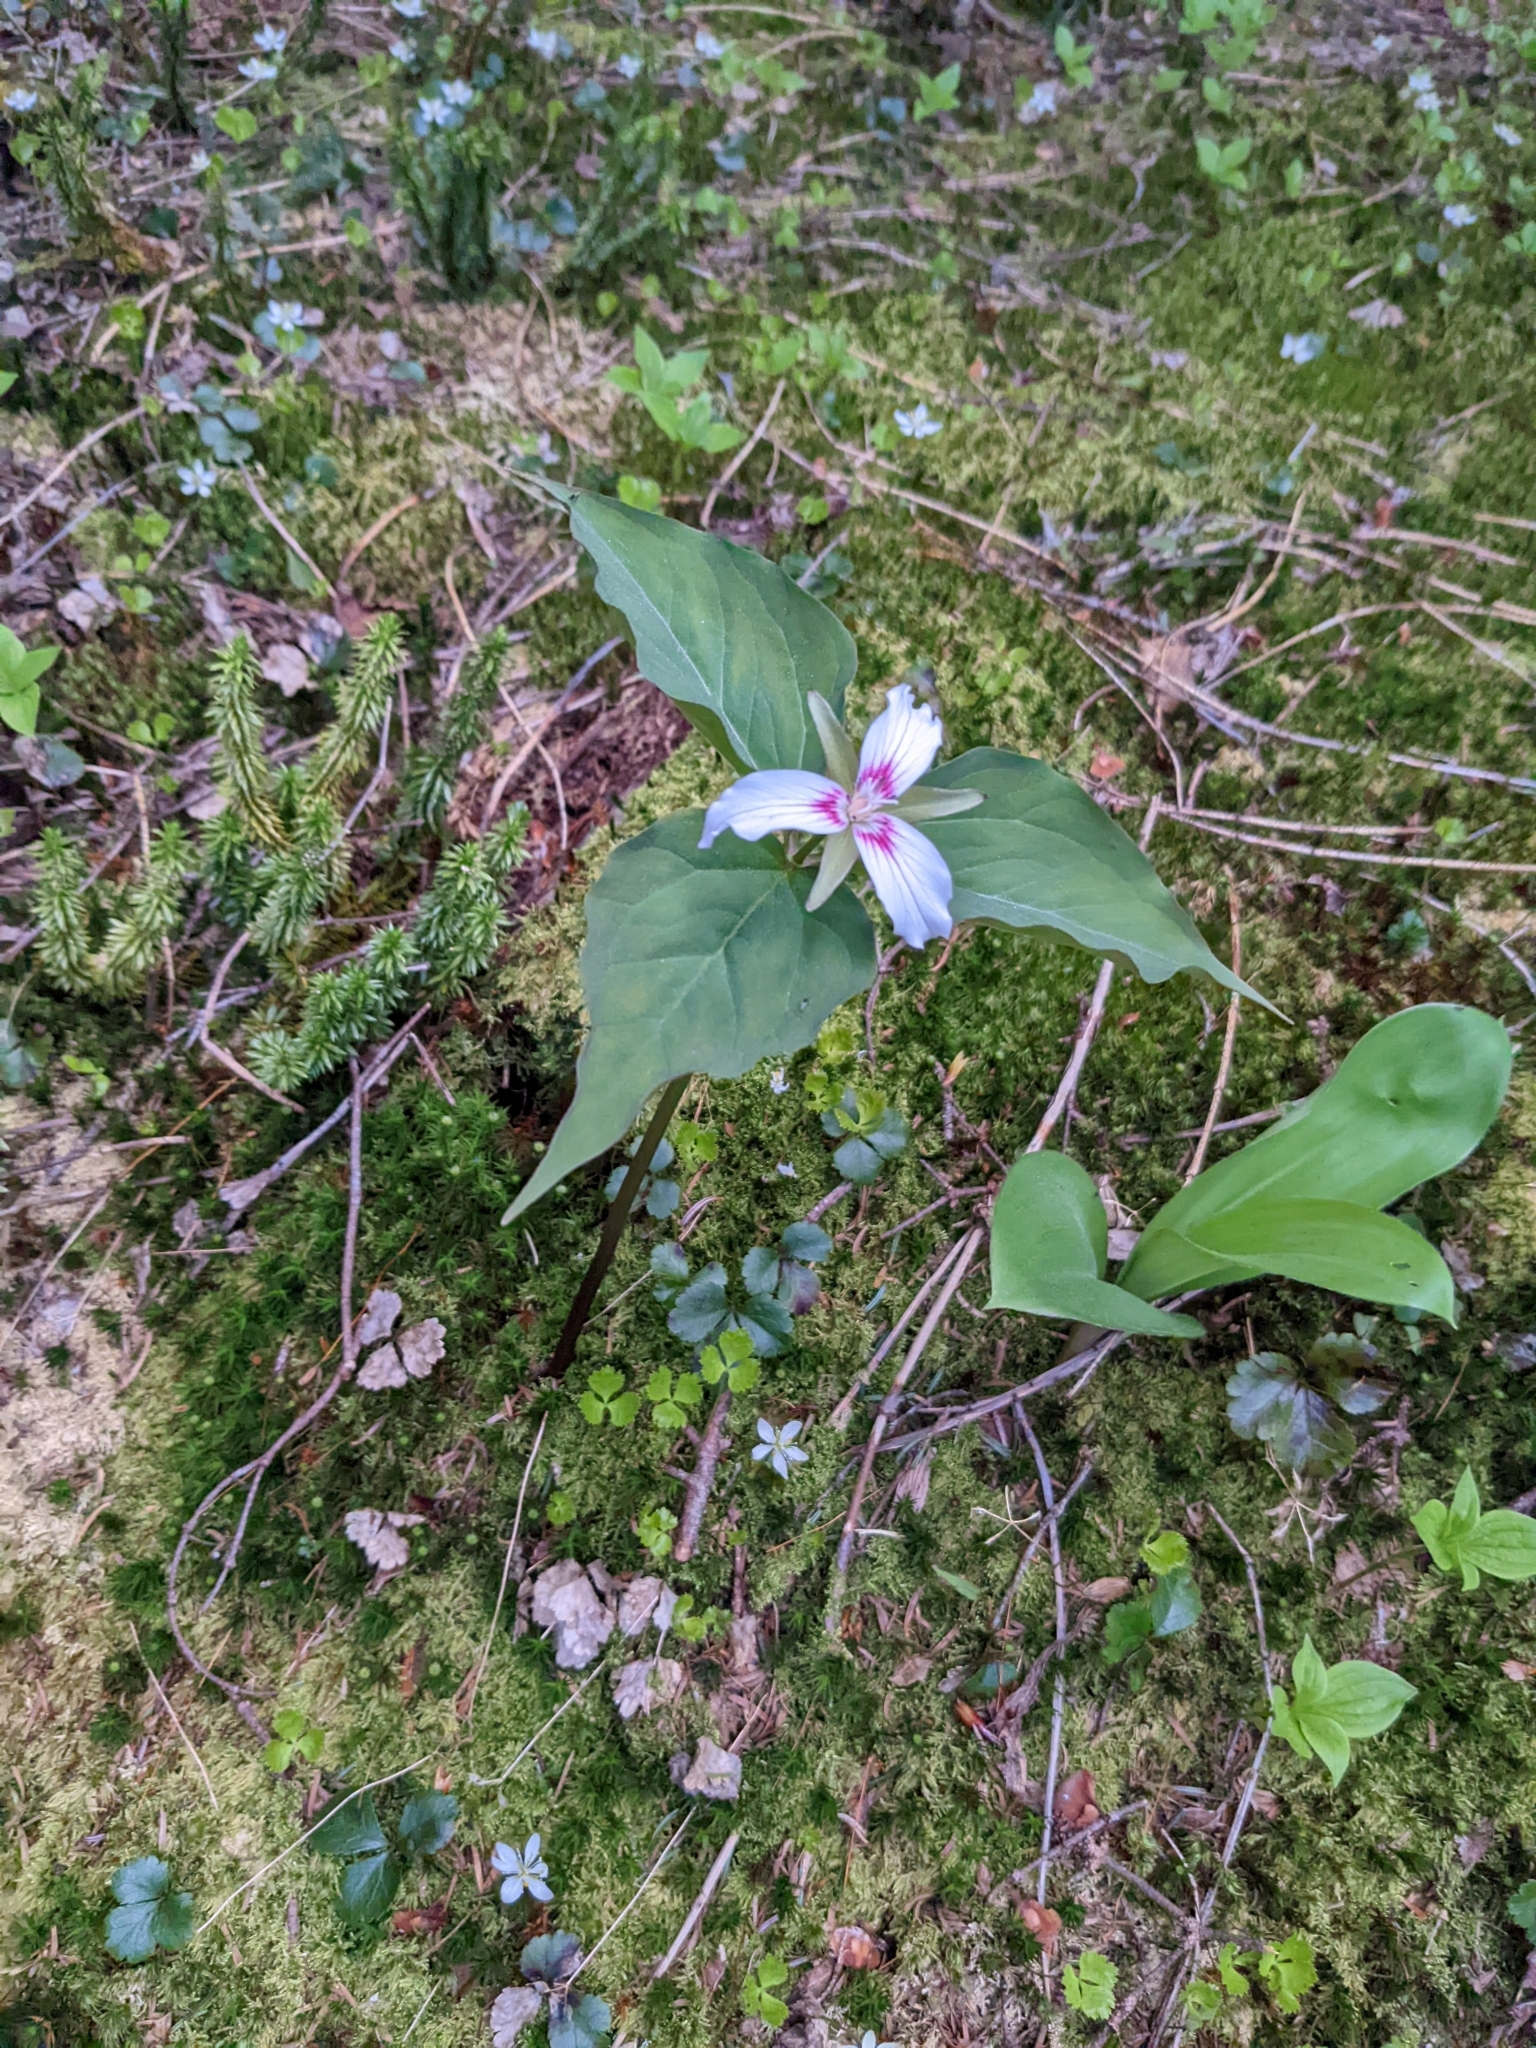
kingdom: Plantae
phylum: Tracheophyta
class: Liliopsida
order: Liliales
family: Melanthiaceae
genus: Trillium
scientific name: Trillium undulatum
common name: Paint trillium
